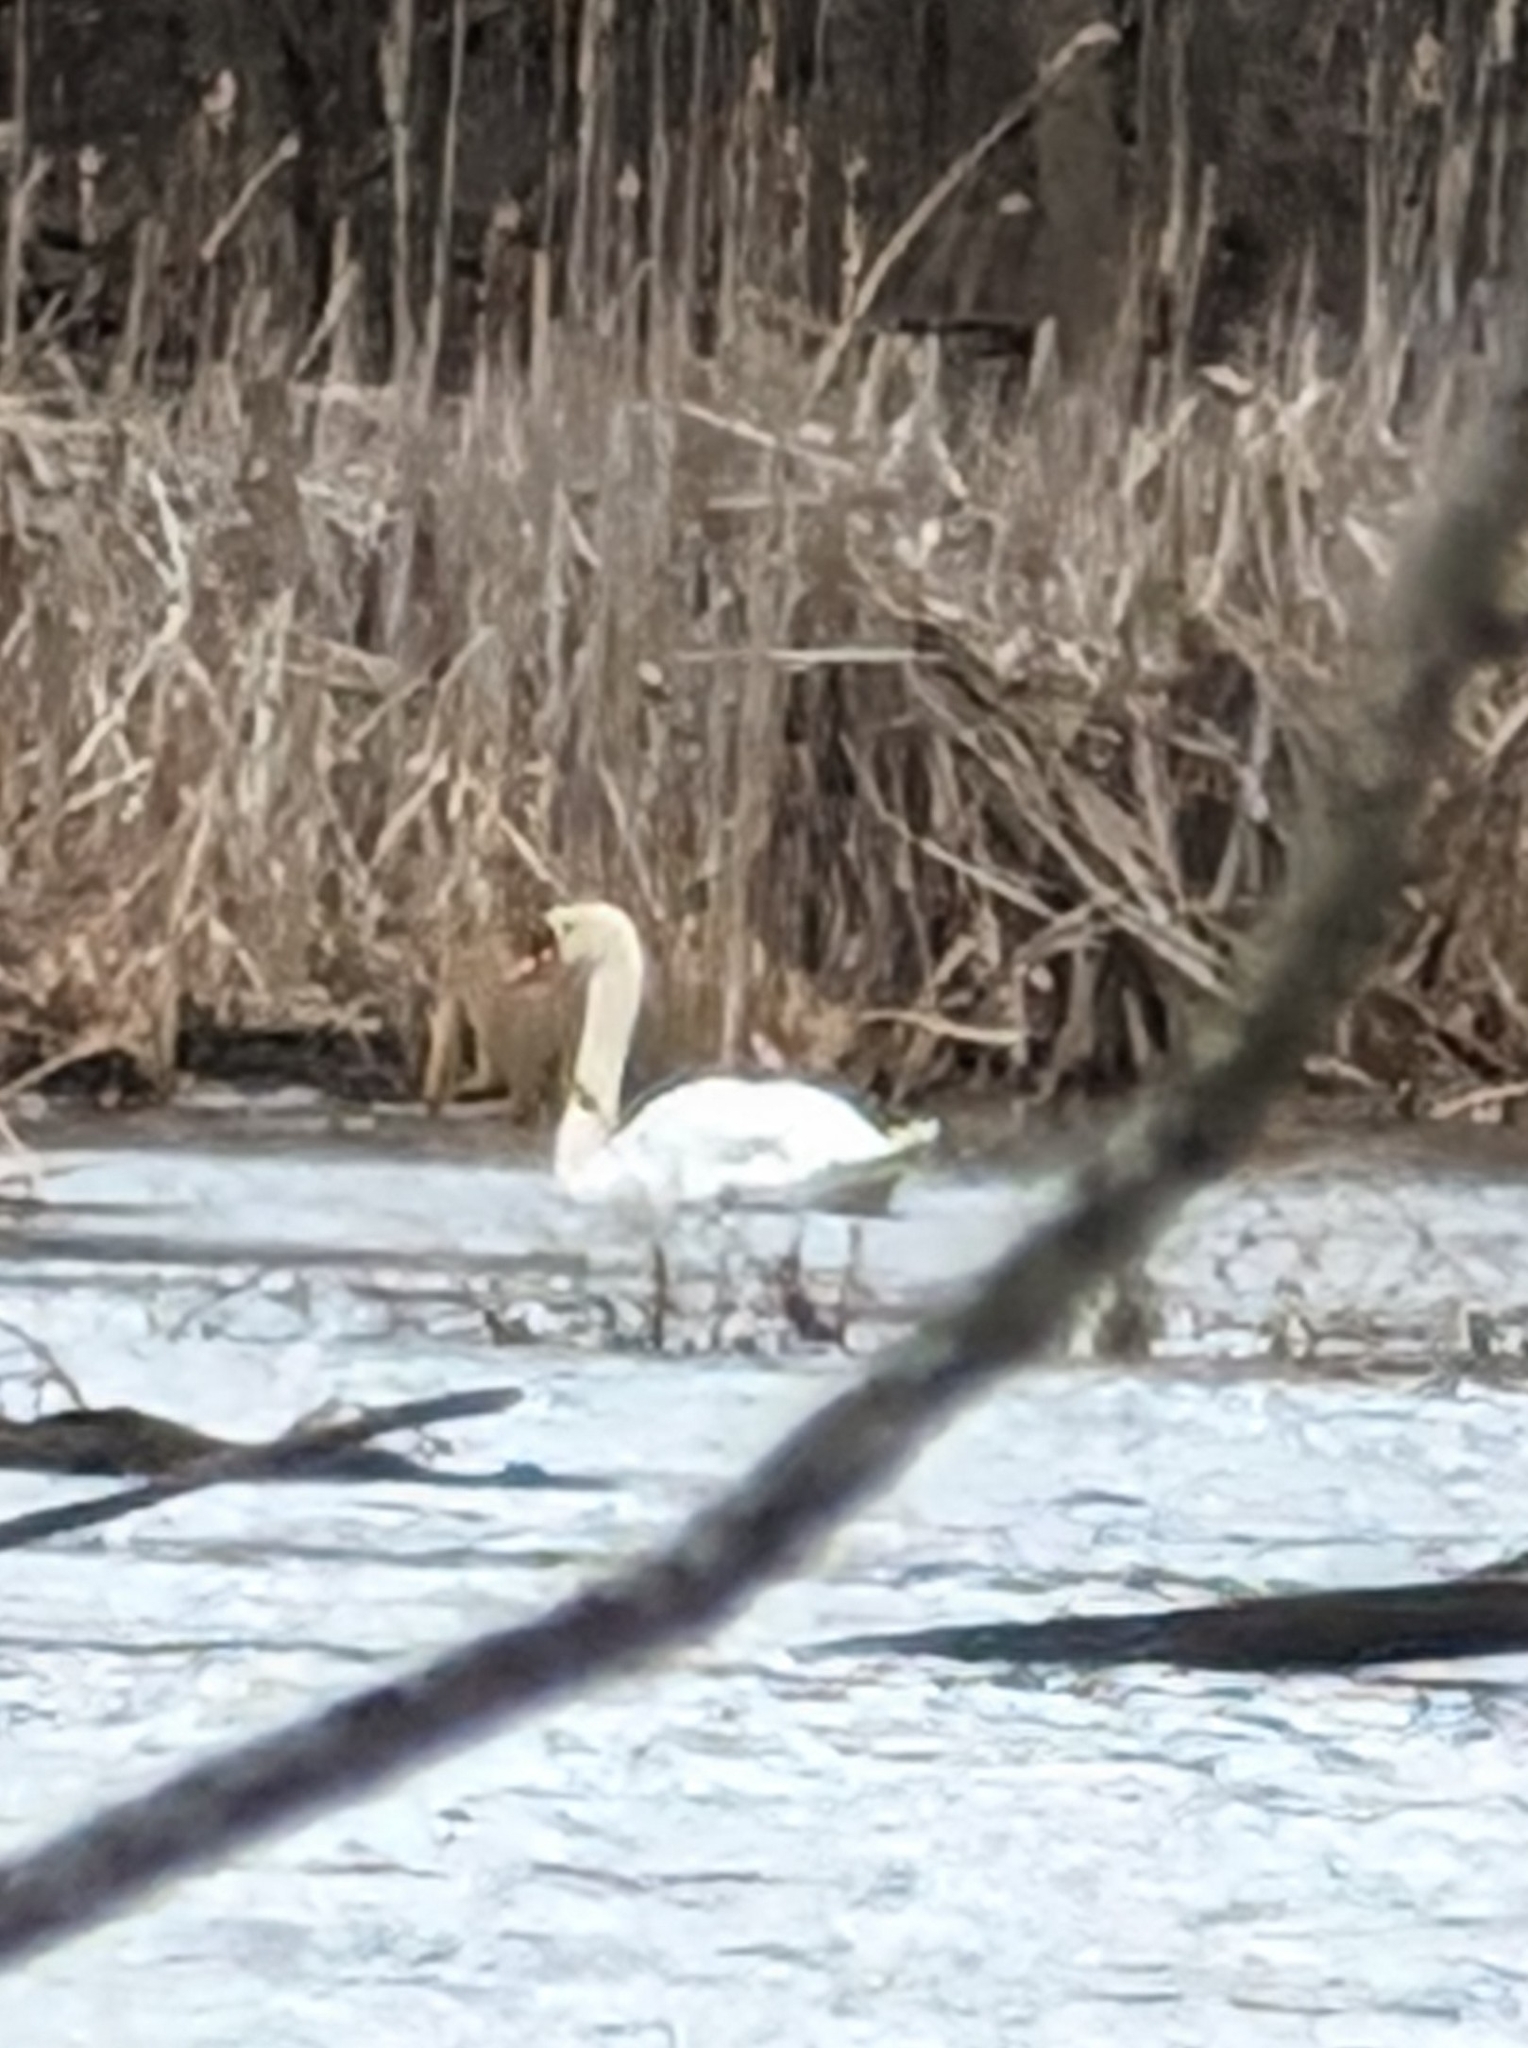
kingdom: Animalia
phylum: Chordata
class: Aves
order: Anseriformes
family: Anatidae
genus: Cygnus
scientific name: Cygnus olor
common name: Mute swan
